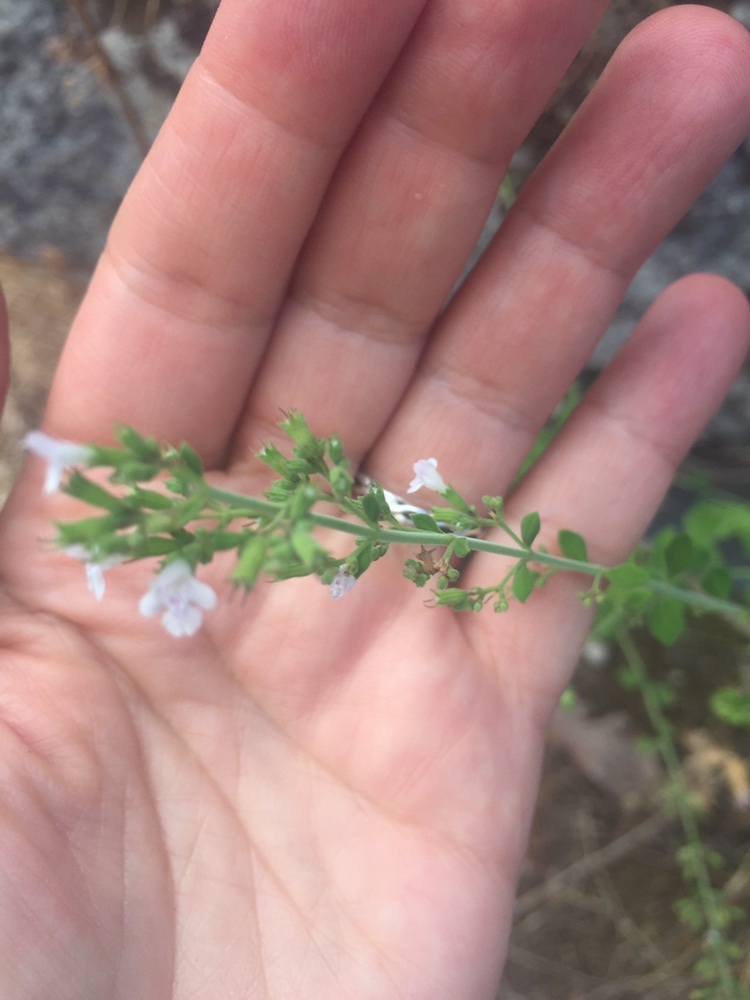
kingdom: Plantae
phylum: Tracheophyta
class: Magnoliopsida
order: Lamiales
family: Lamiaceae
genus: Clinopodium
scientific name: Clinopodium nepeta
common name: Lesser calamint
